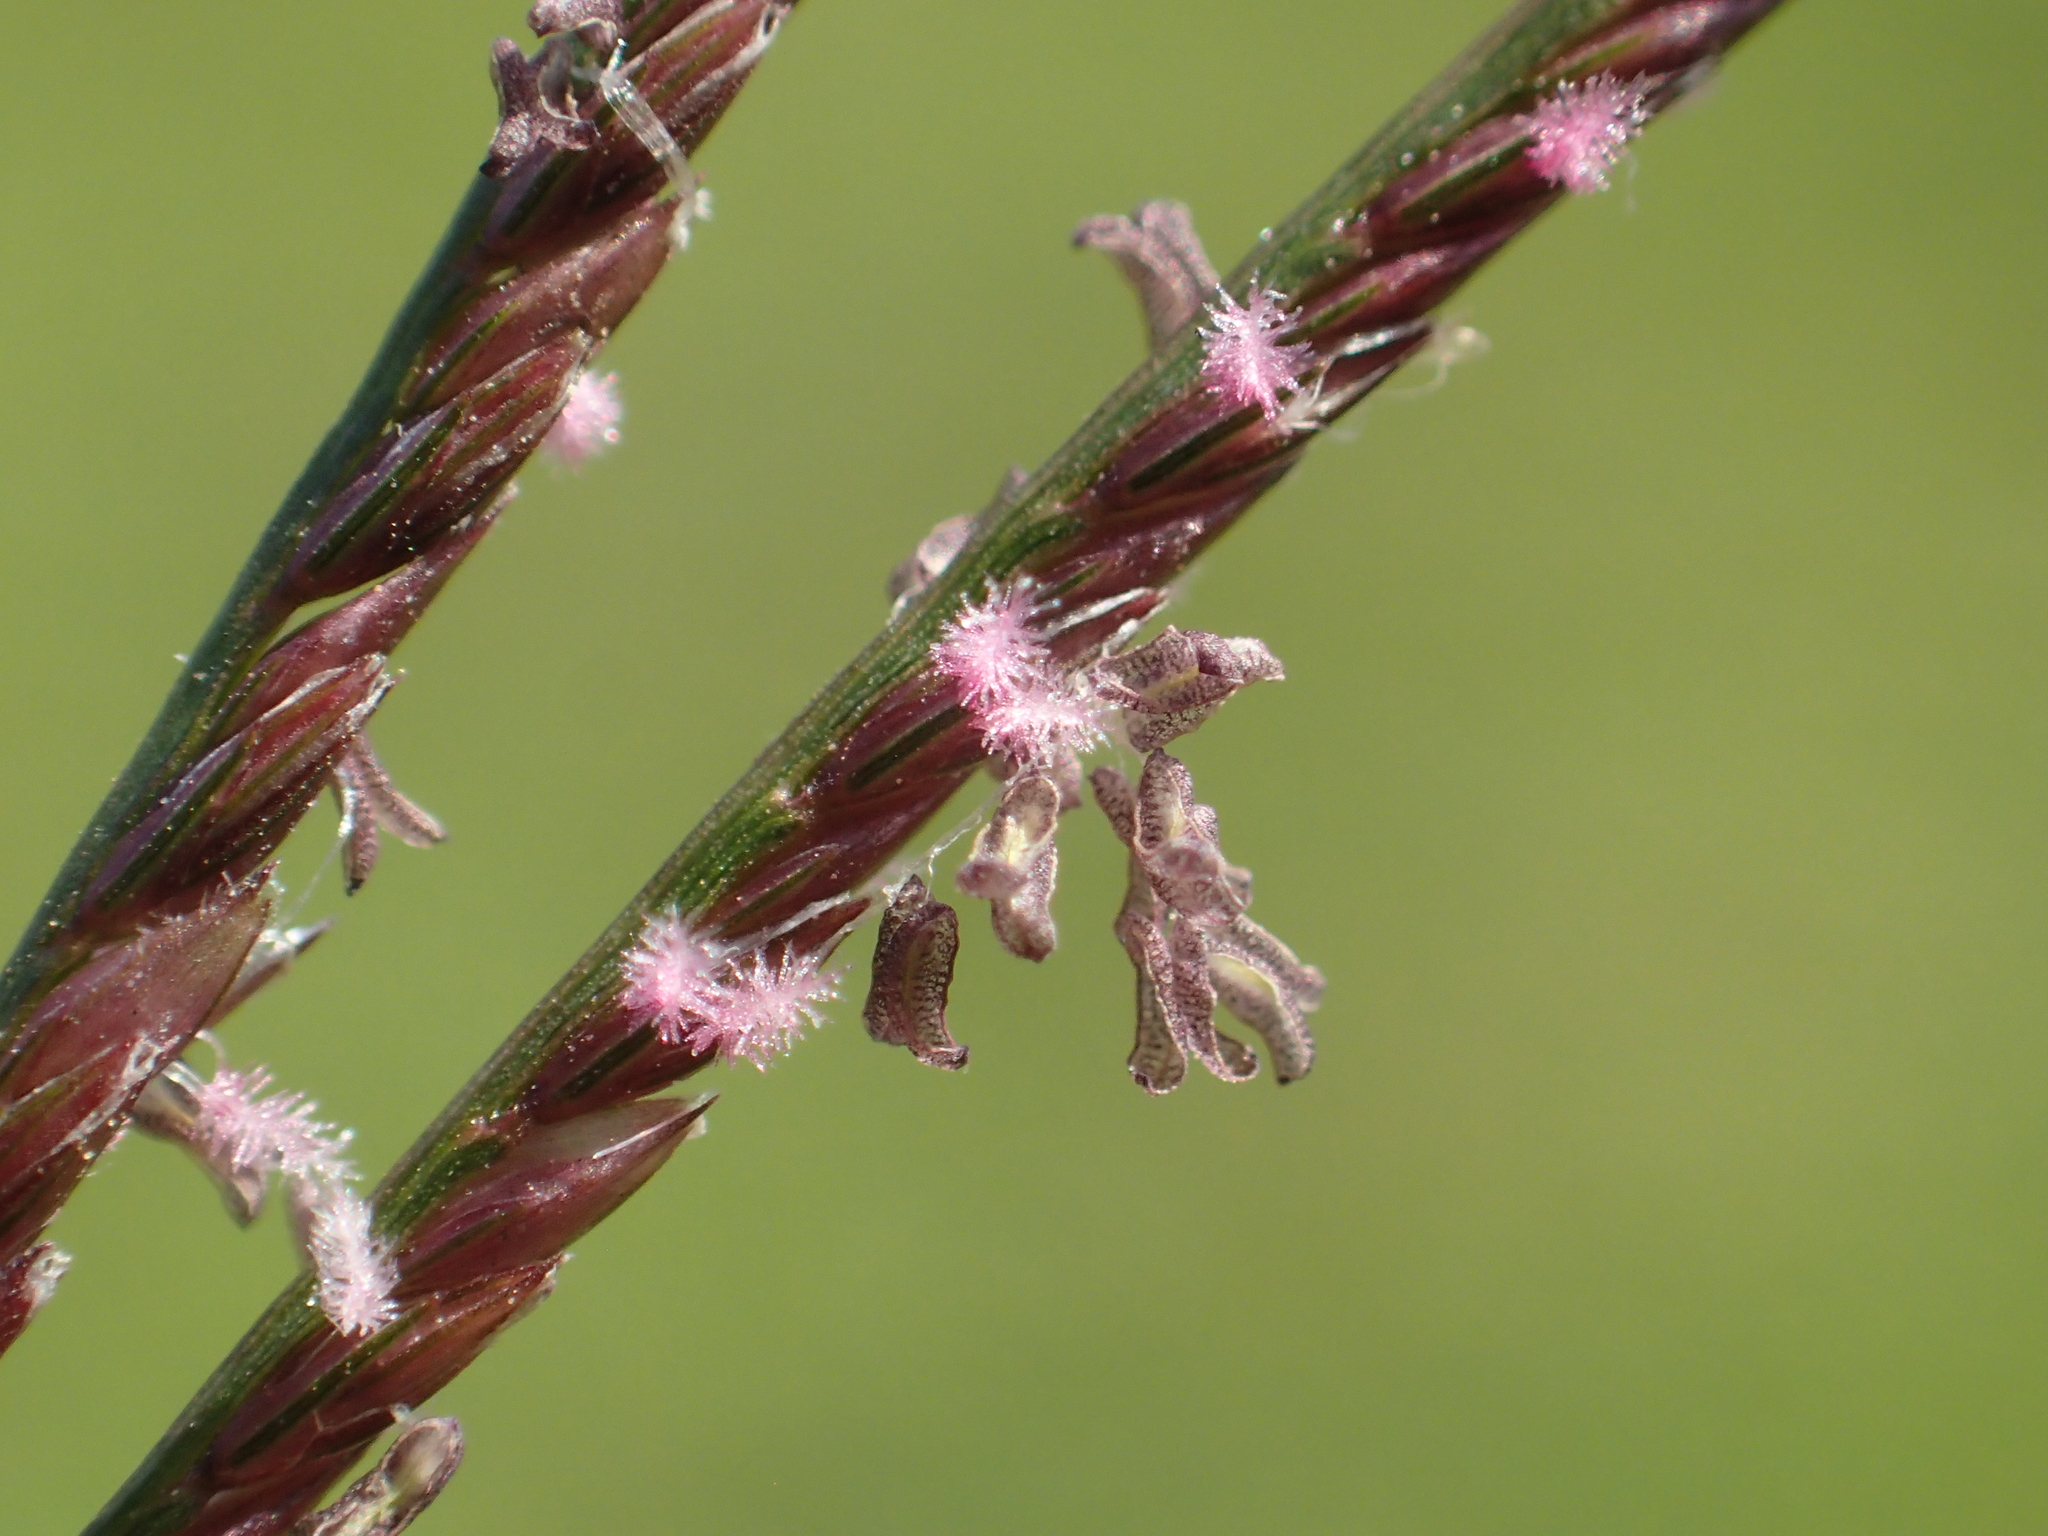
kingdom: Plantae
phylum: Tracheophyta
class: Liliopsida
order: Poales
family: Poaceae
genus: Cynodon
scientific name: Cynodon dactylon
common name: Bermuda grass
